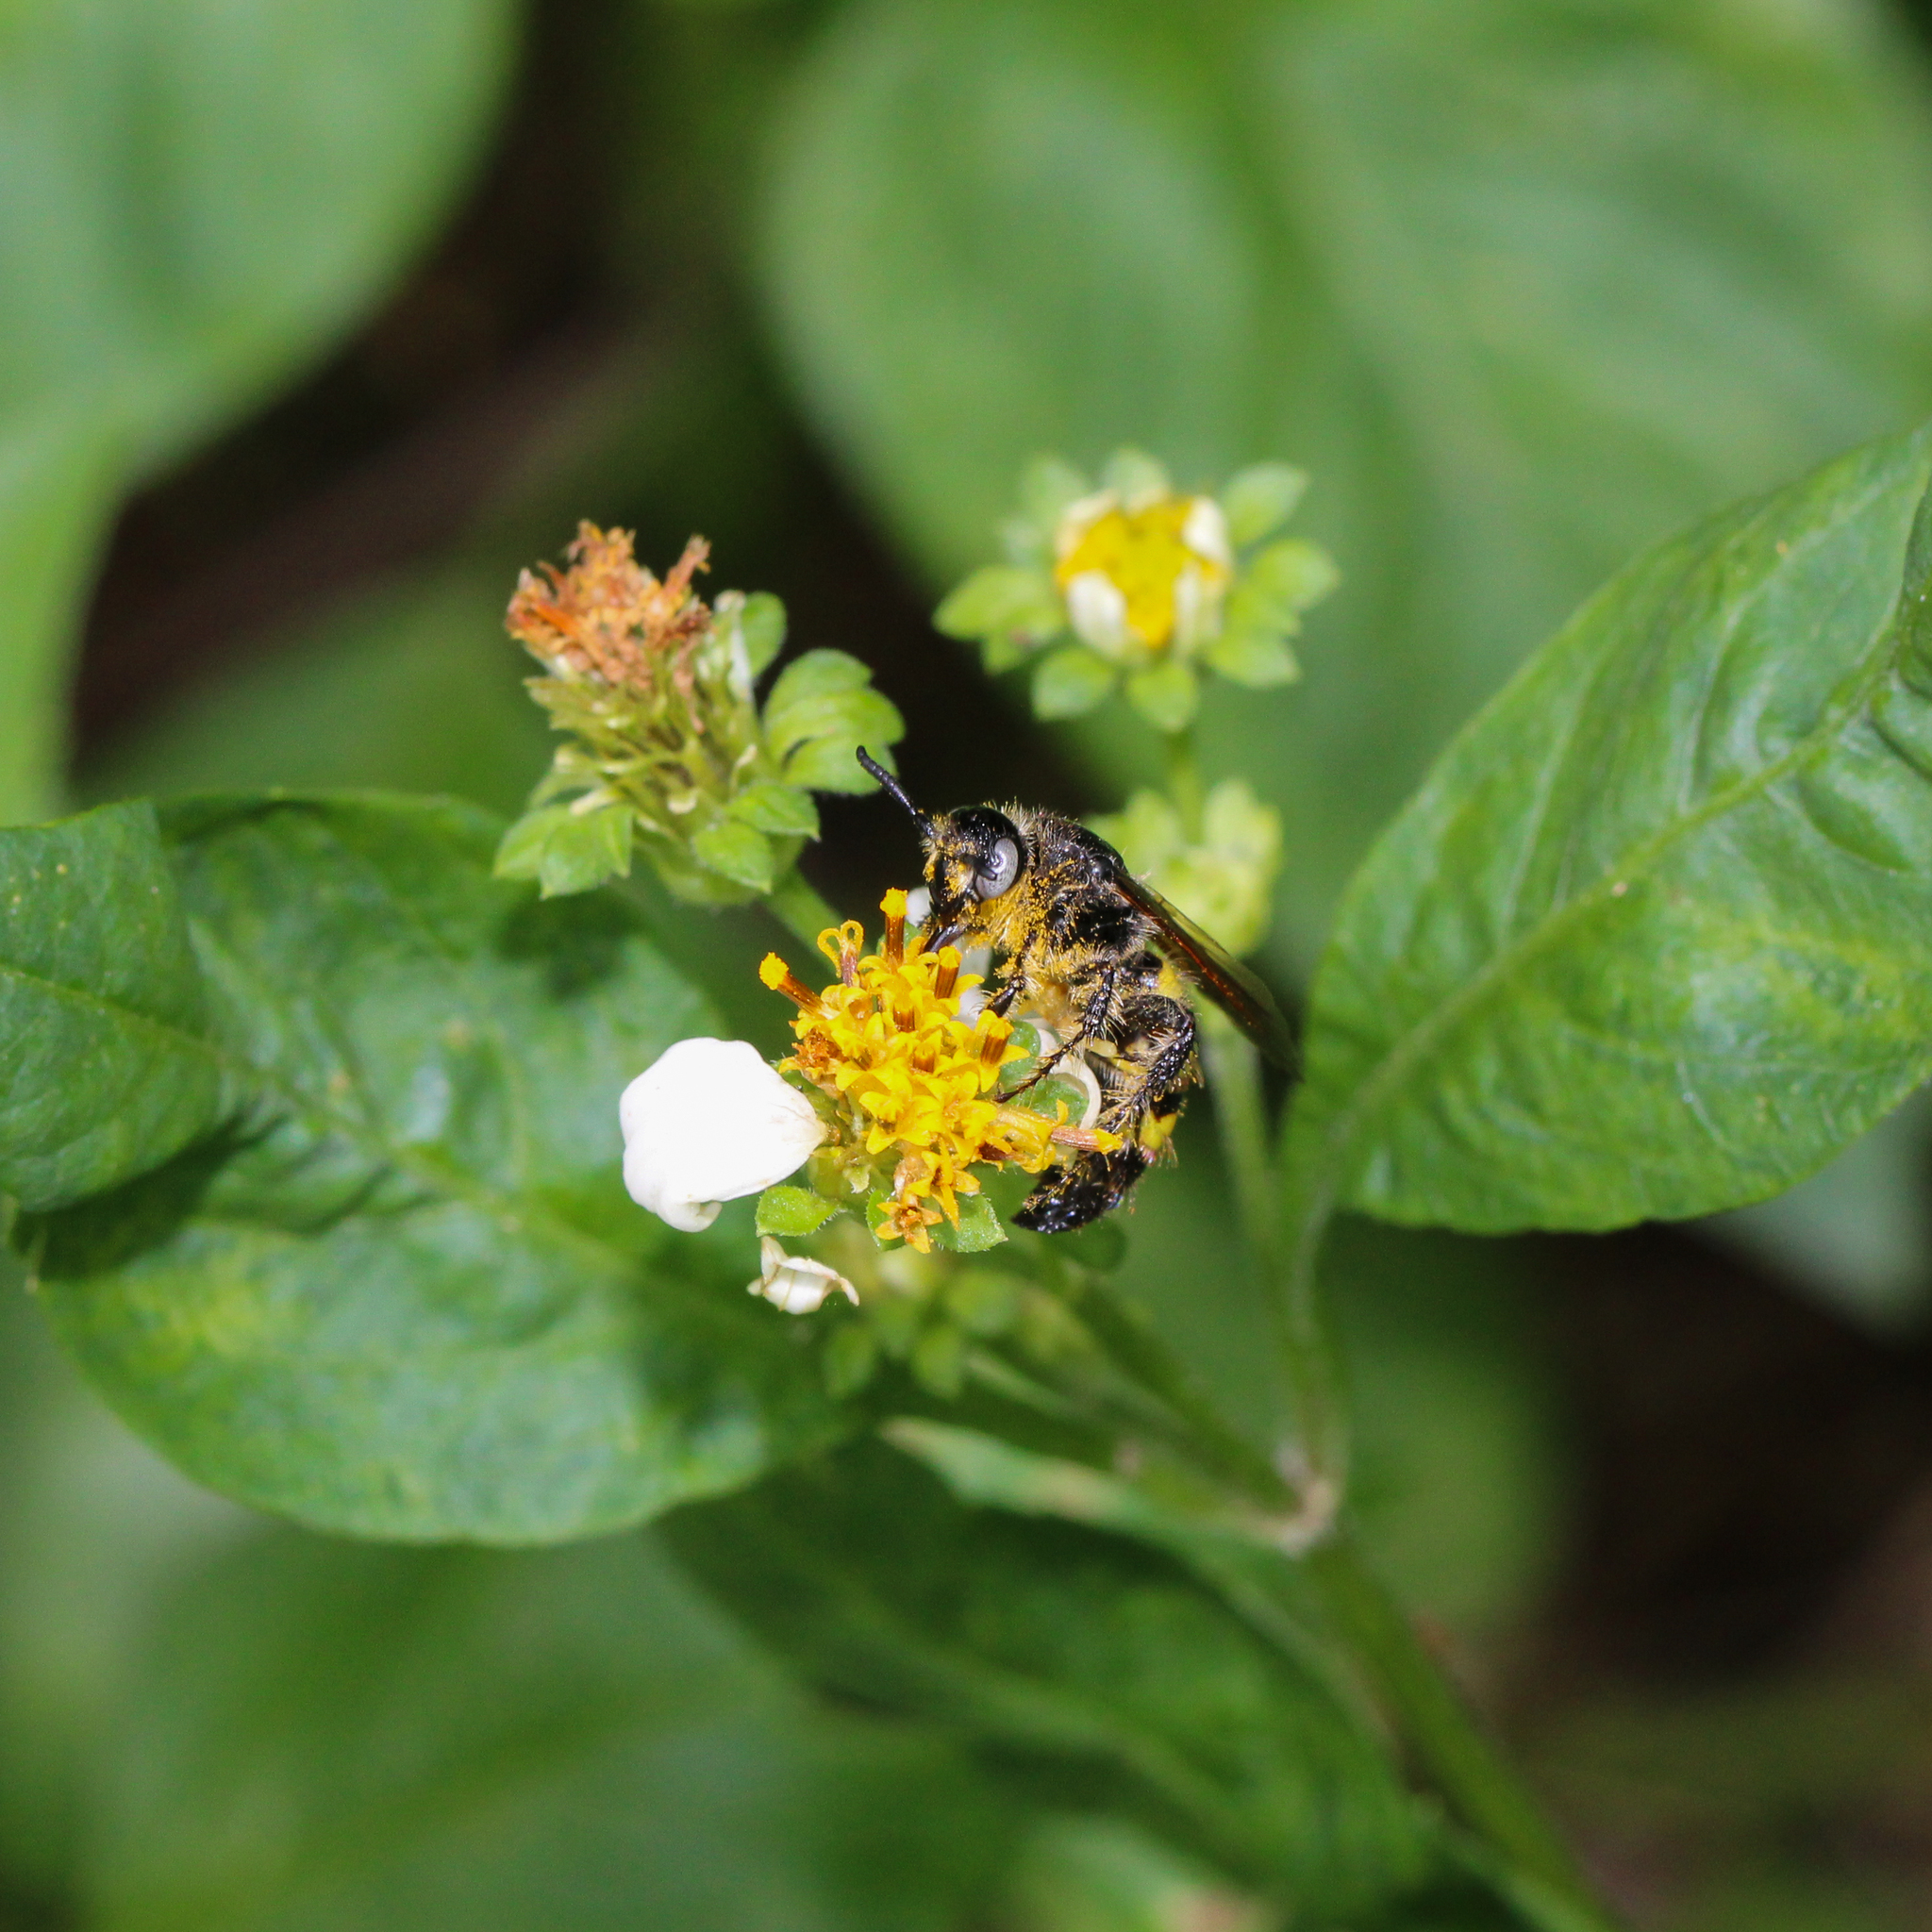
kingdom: Animalia
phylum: Arthropoda
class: Insecta
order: Hymenoptera
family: Scoliidae
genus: Dielis
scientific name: Dielis
